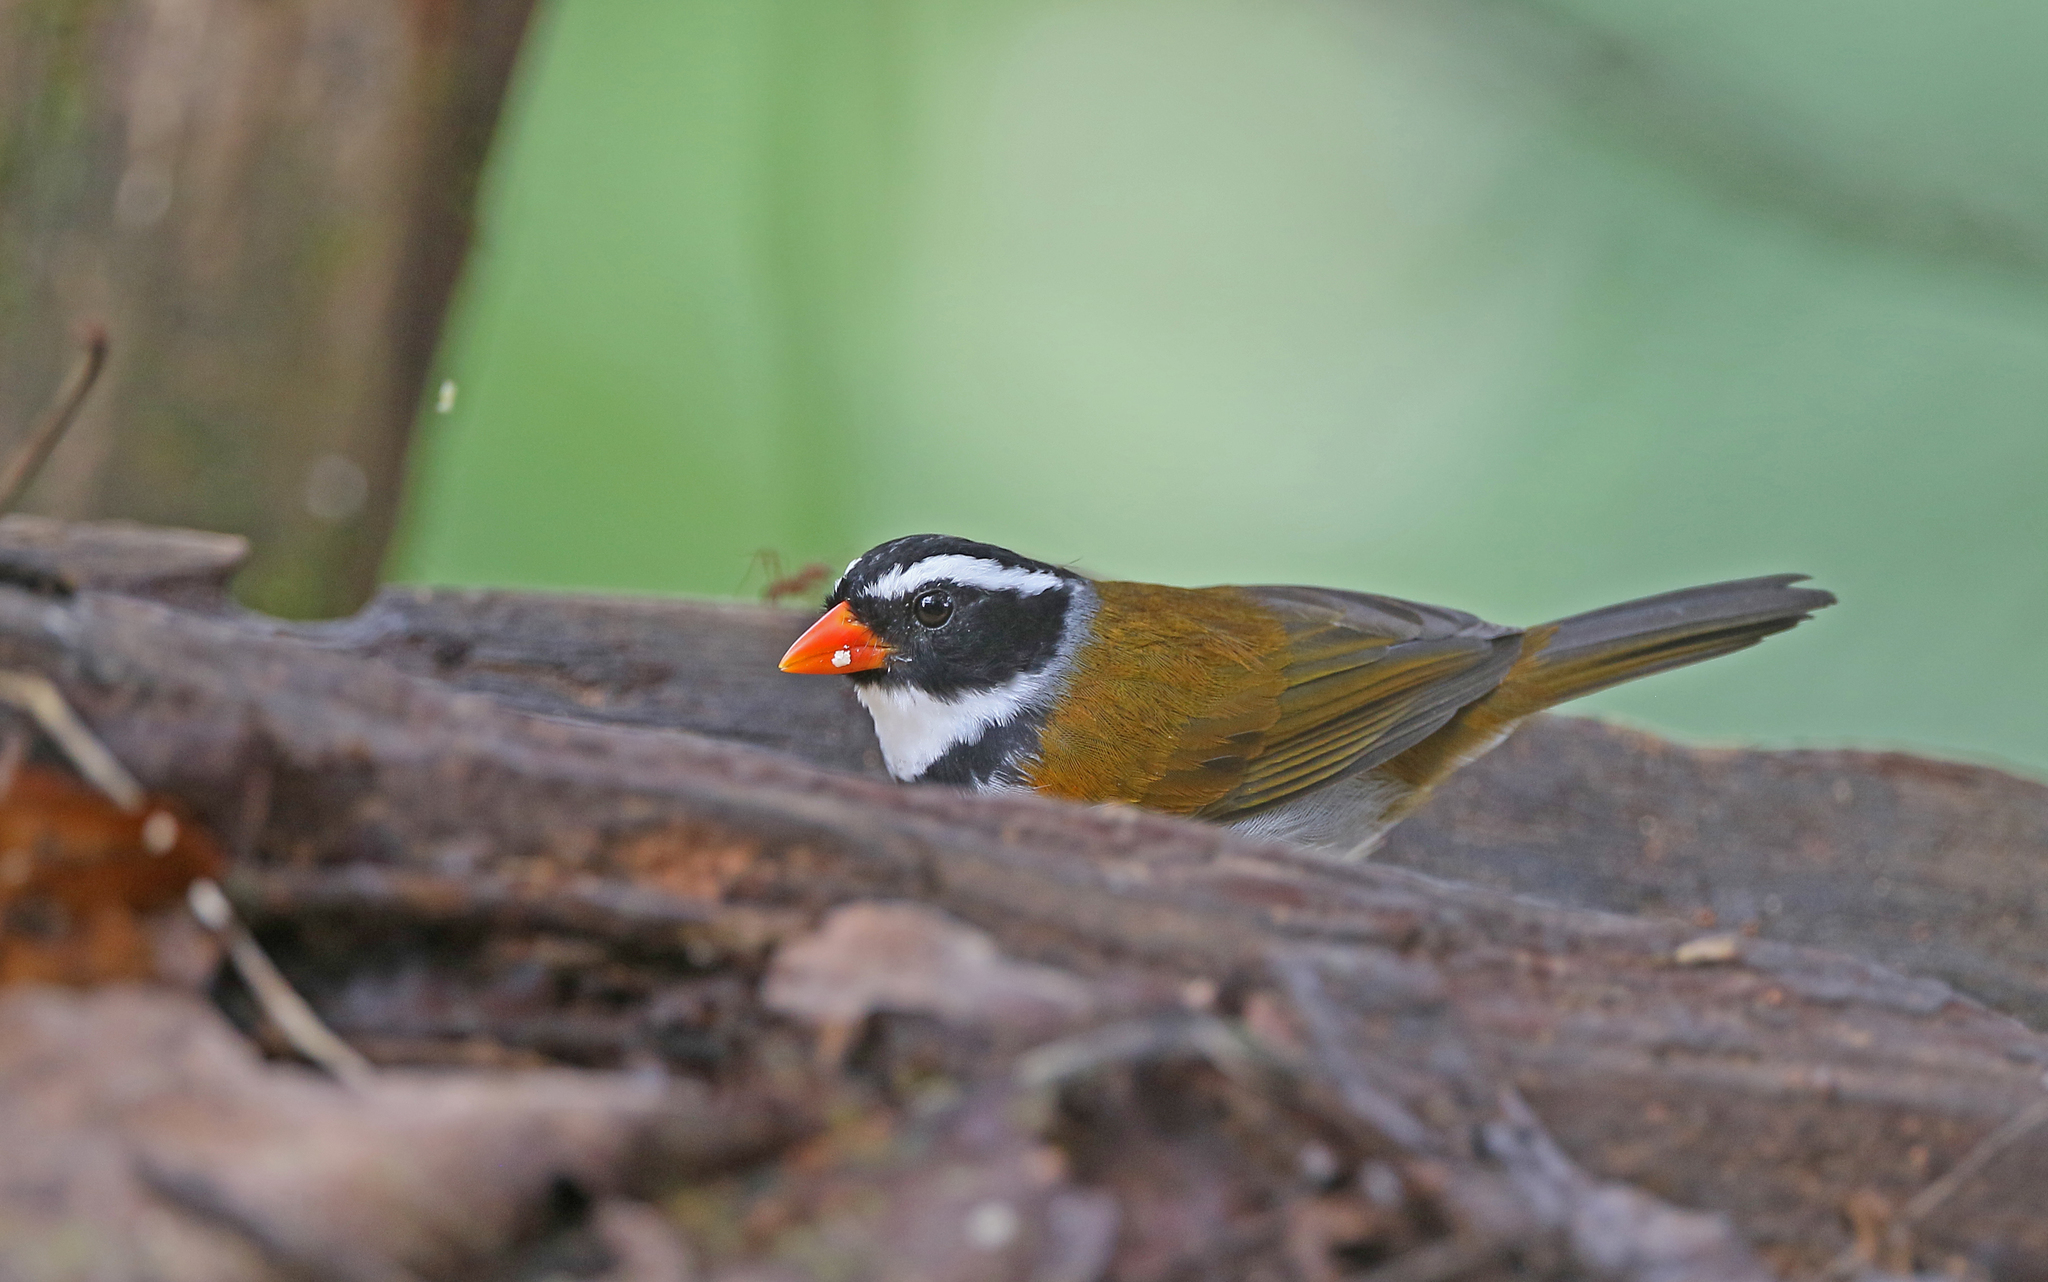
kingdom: Animalia
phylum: Chordata
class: Aves
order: Passeriformes
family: Passerellidae
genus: Arremon
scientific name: Arremon aurantiirostris
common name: Orange-billed sparrow
